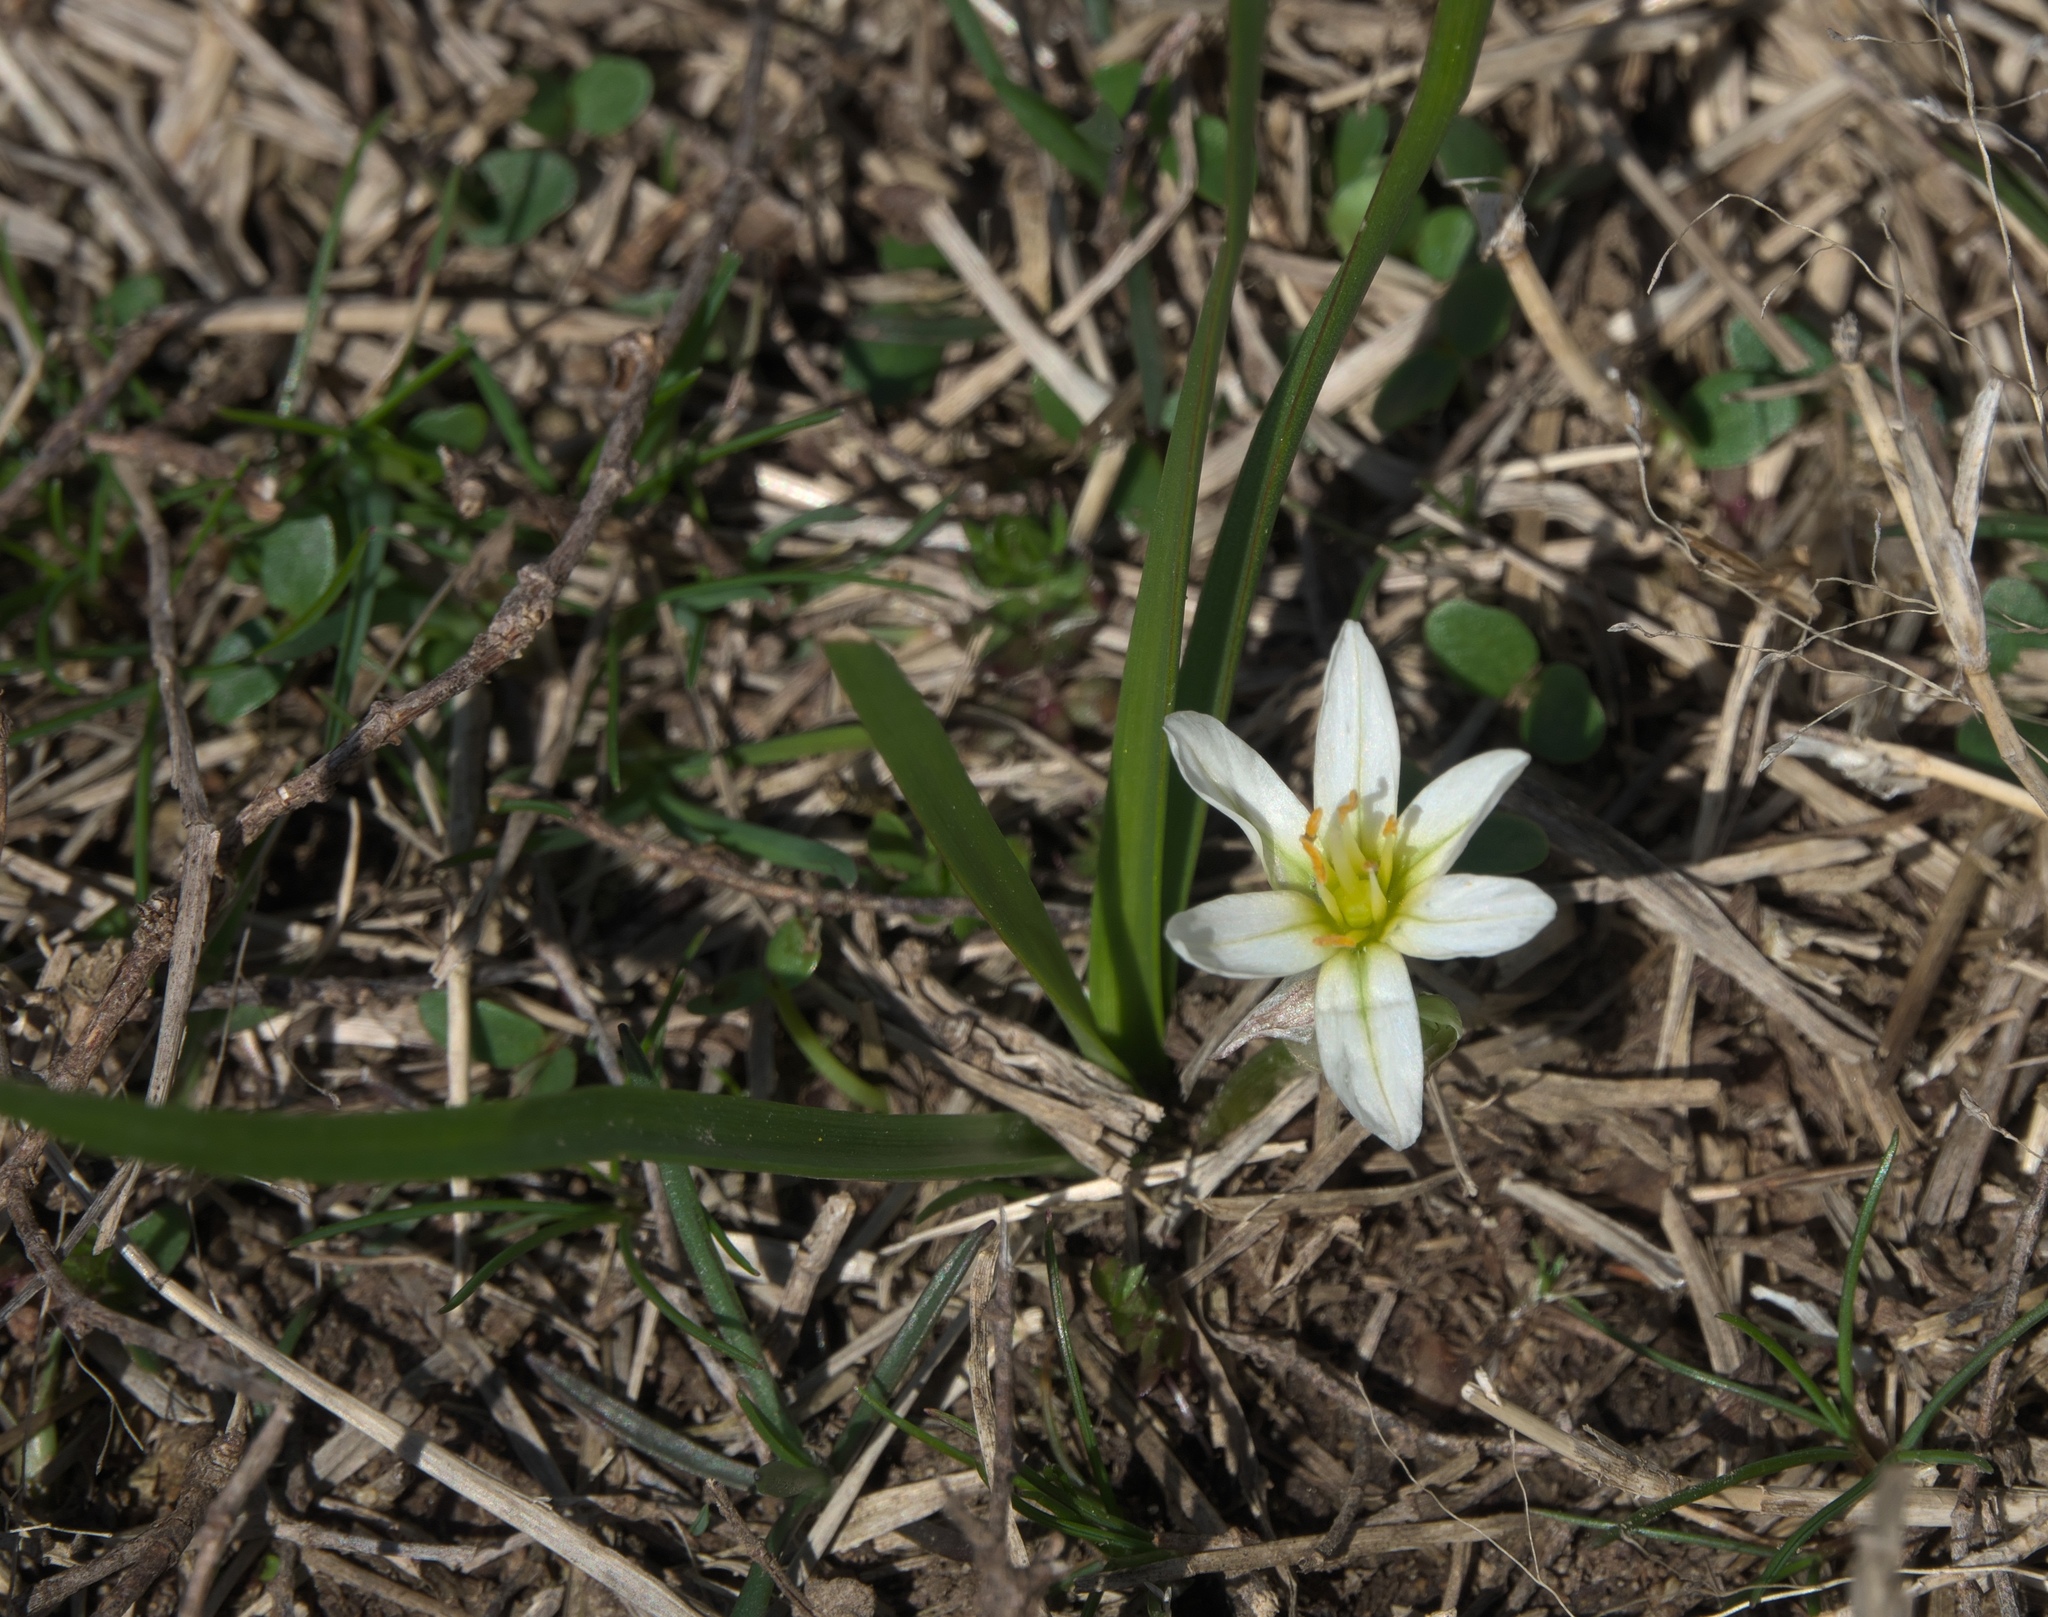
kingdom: Plantae
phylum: Tracheophyta
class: Liliopsida
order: Asparagales
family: Amaryllidaceae
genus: Nothoscordum
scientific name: Nothoscordum bivalve
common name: Crow-poison
